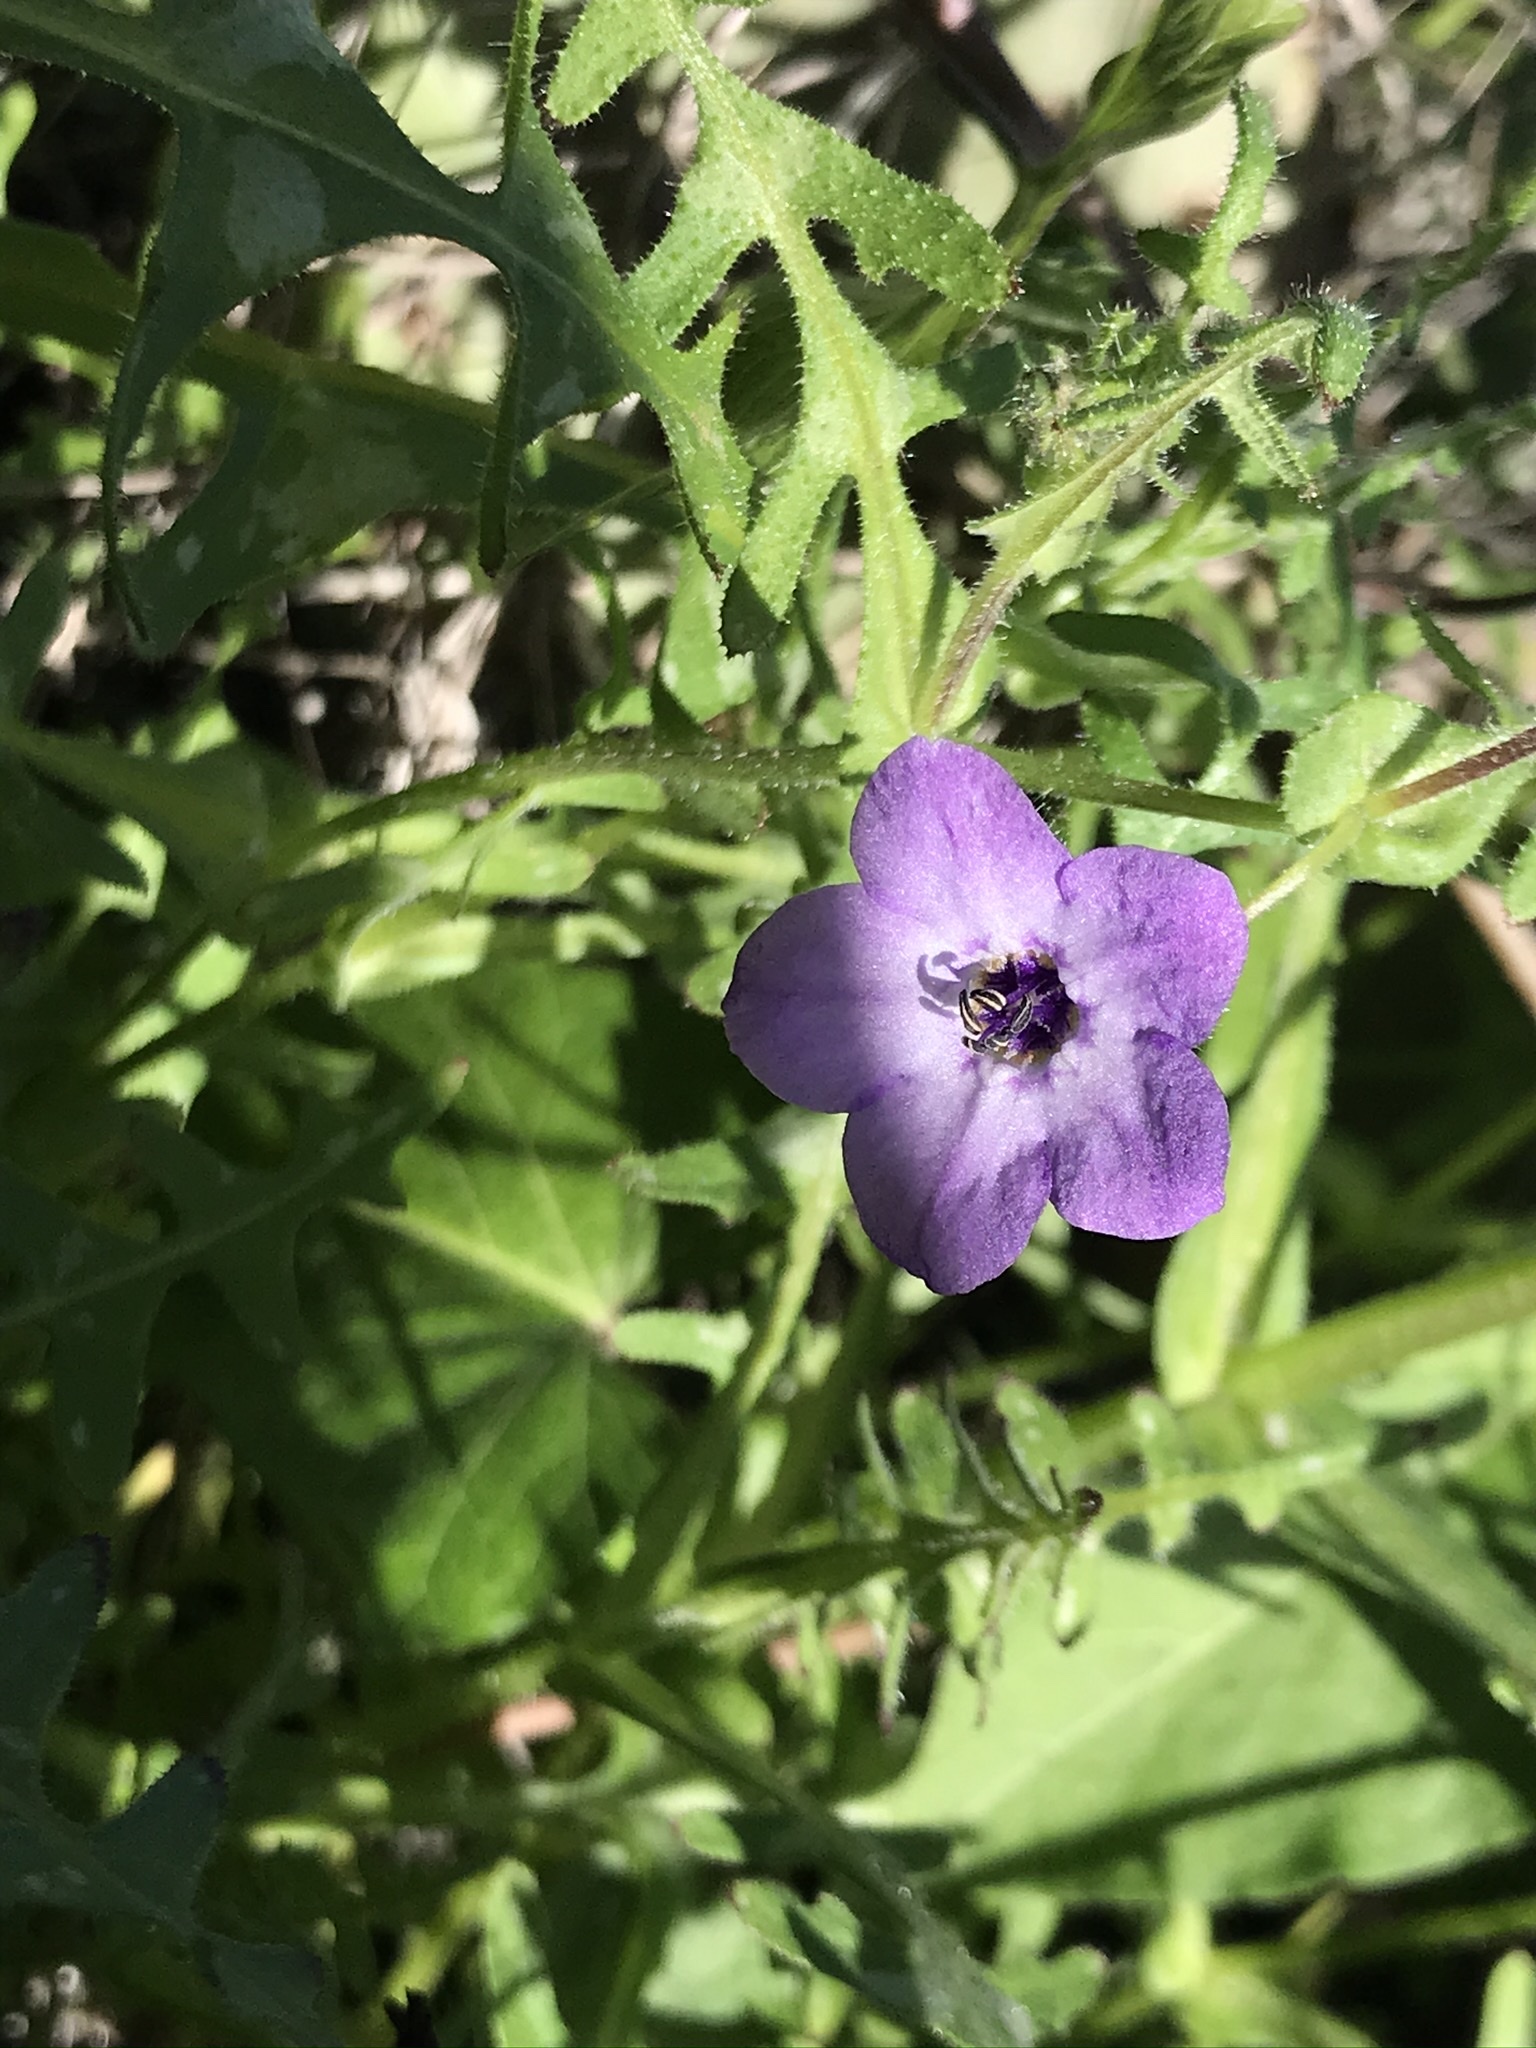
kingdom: Plantae
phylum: Tracheophyta
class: Magnoliopsida
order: Boraginales
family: Hydrophyllaceae
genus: Pholistoma
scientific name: Pholistoma auritum
